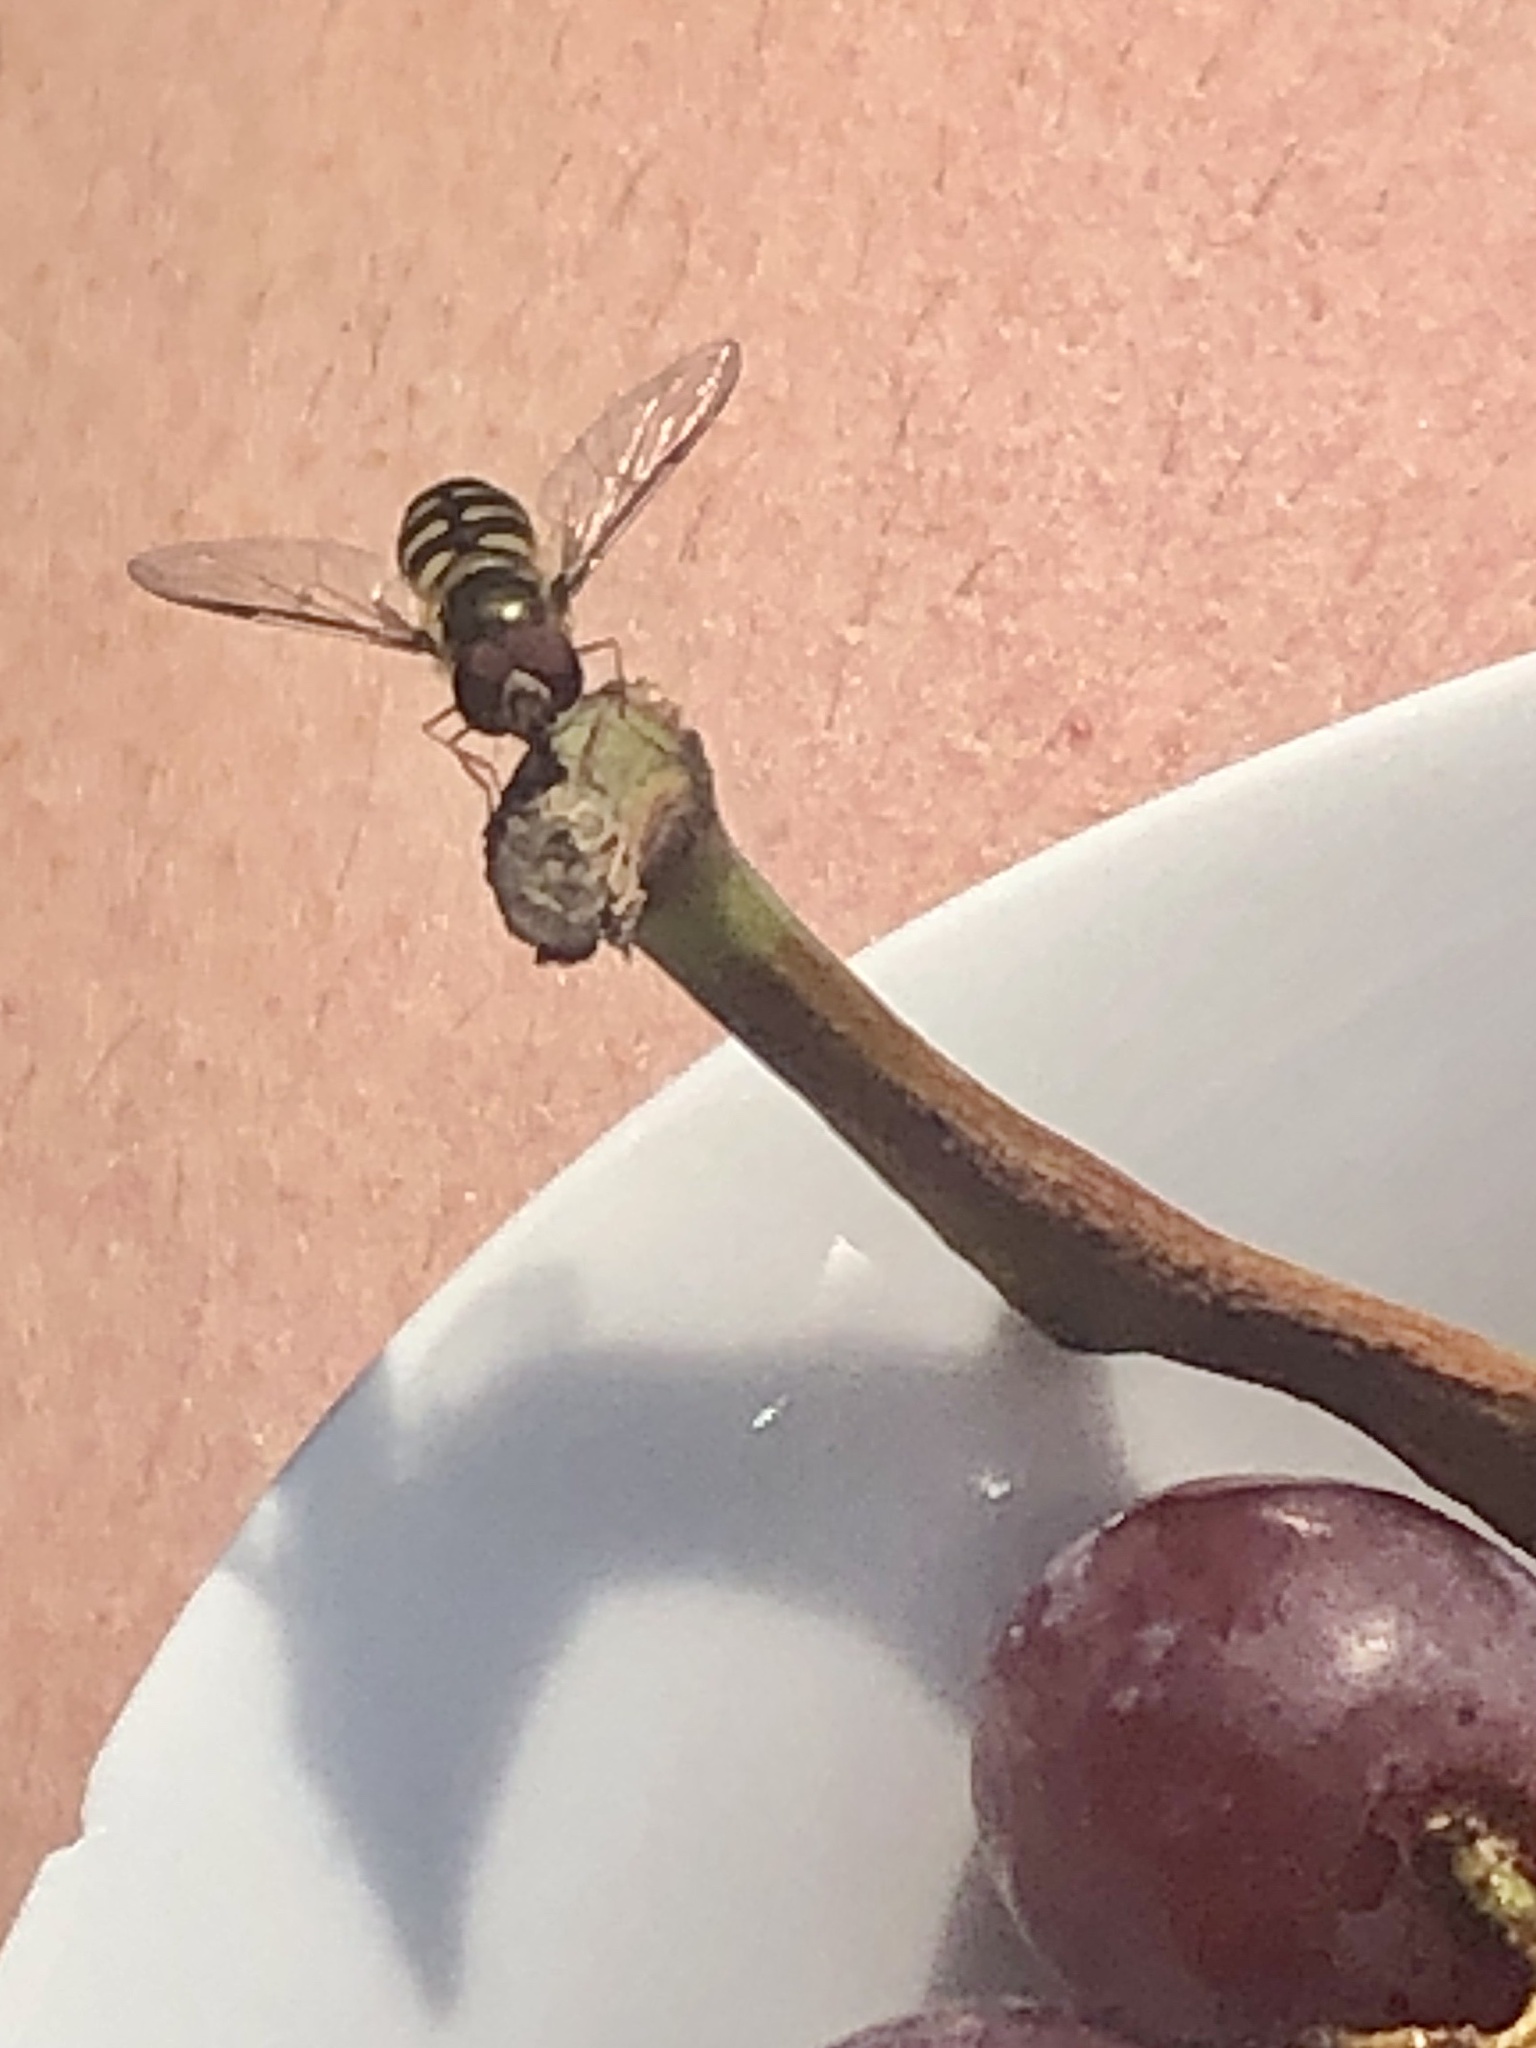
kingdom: Animalia
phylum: Arthropoda
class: Insecta
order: Diptera
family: Syrphidae
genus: Lapposyrphus
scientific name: Lapposyrphus lapponicus
